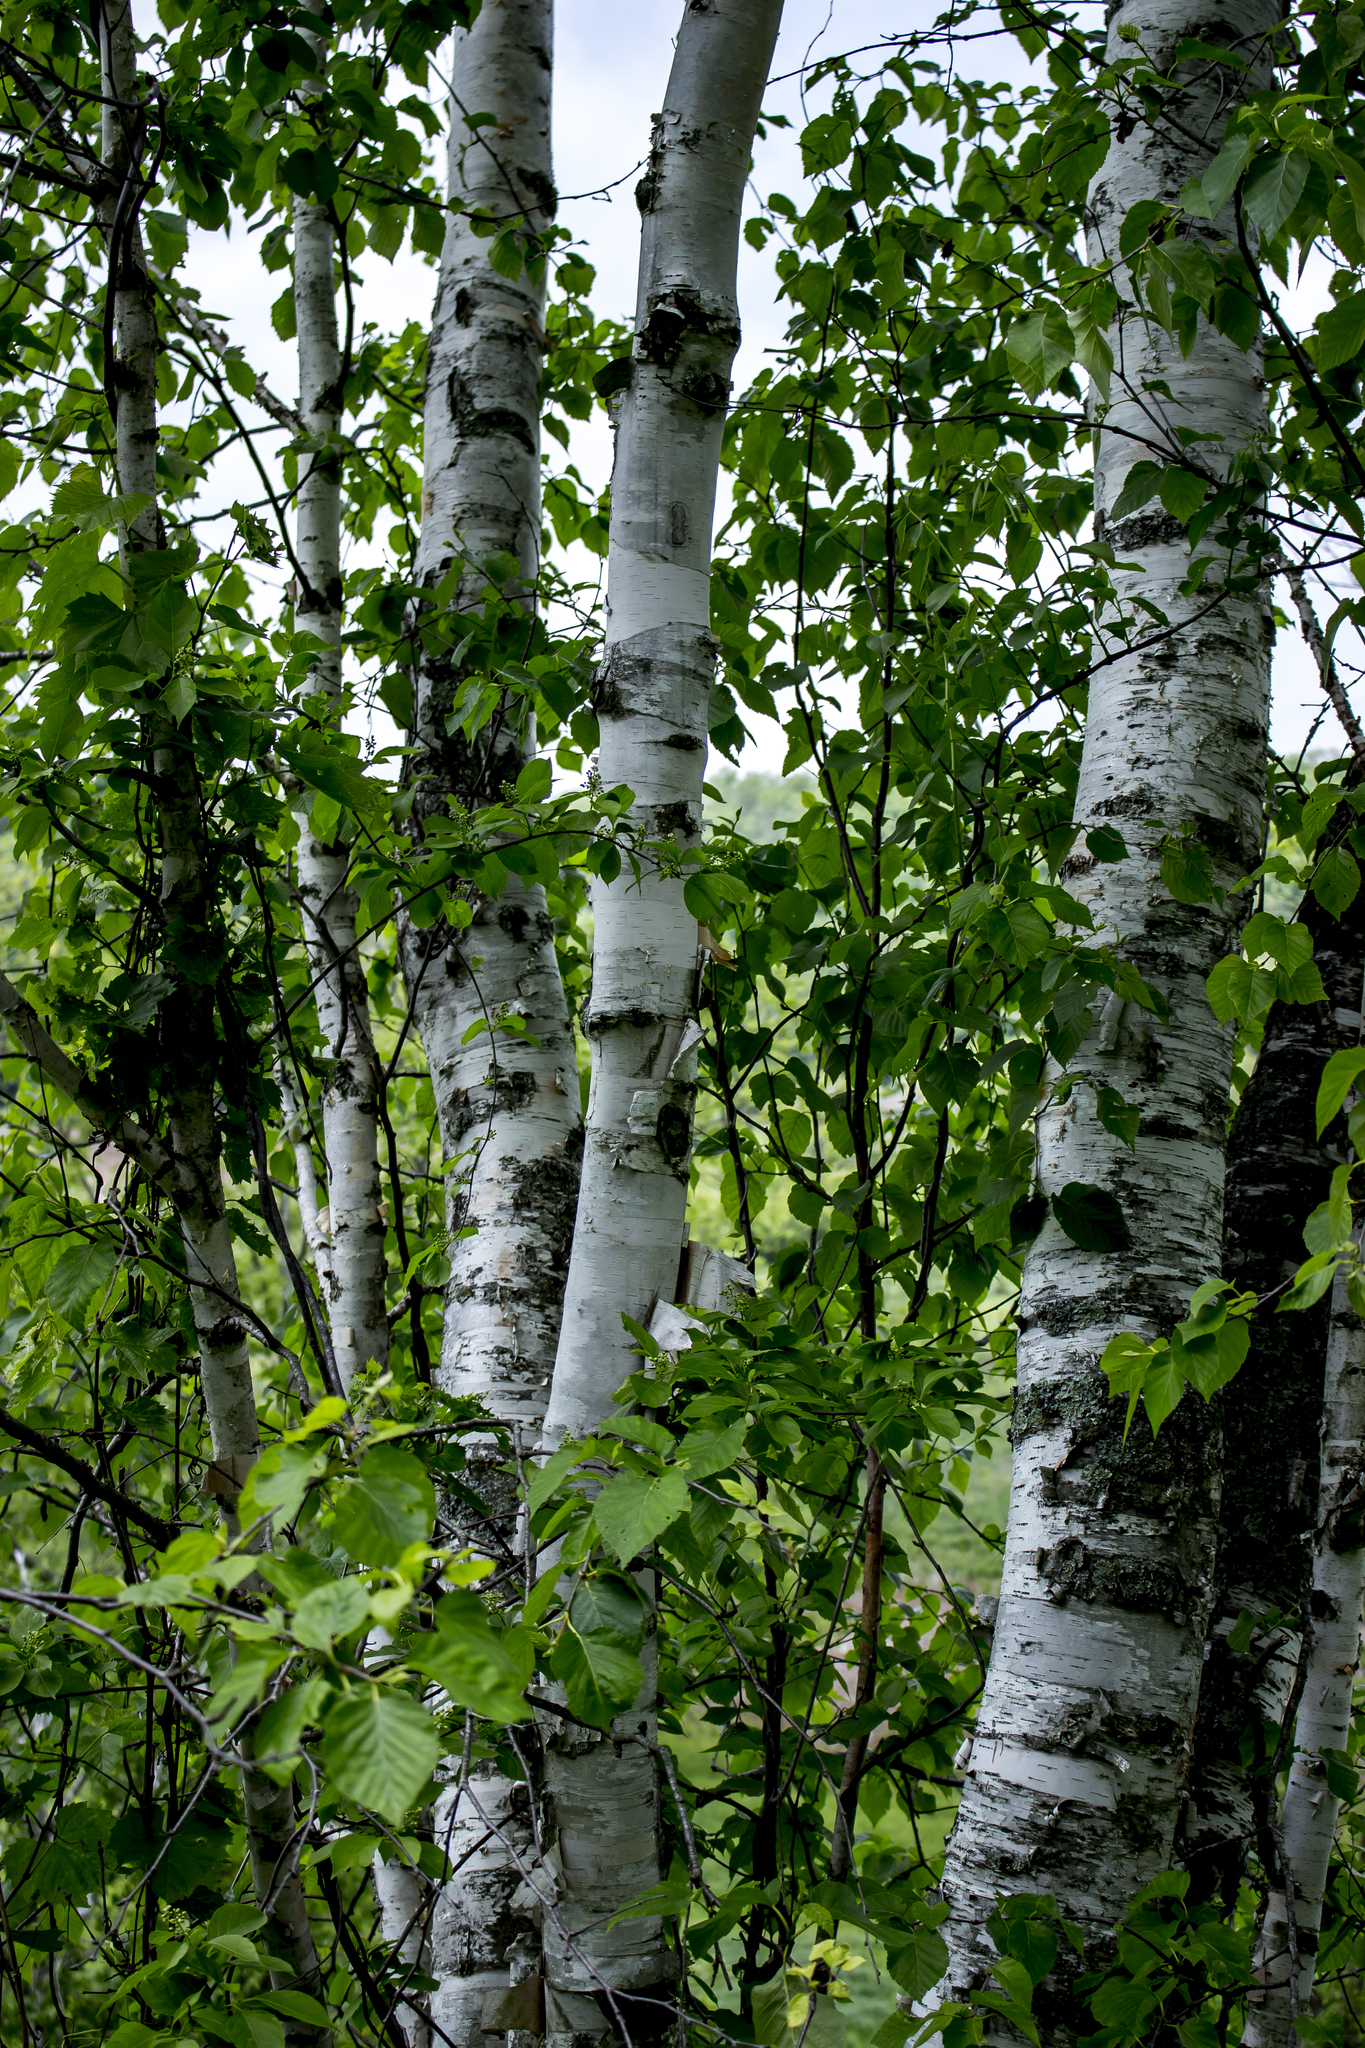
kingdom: Plantae
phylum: Tracheophyta
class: Magnoliopsida
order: Fagales
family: Betulaceae
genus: Betula
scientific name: Betula papyrifera
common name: Paper birch
